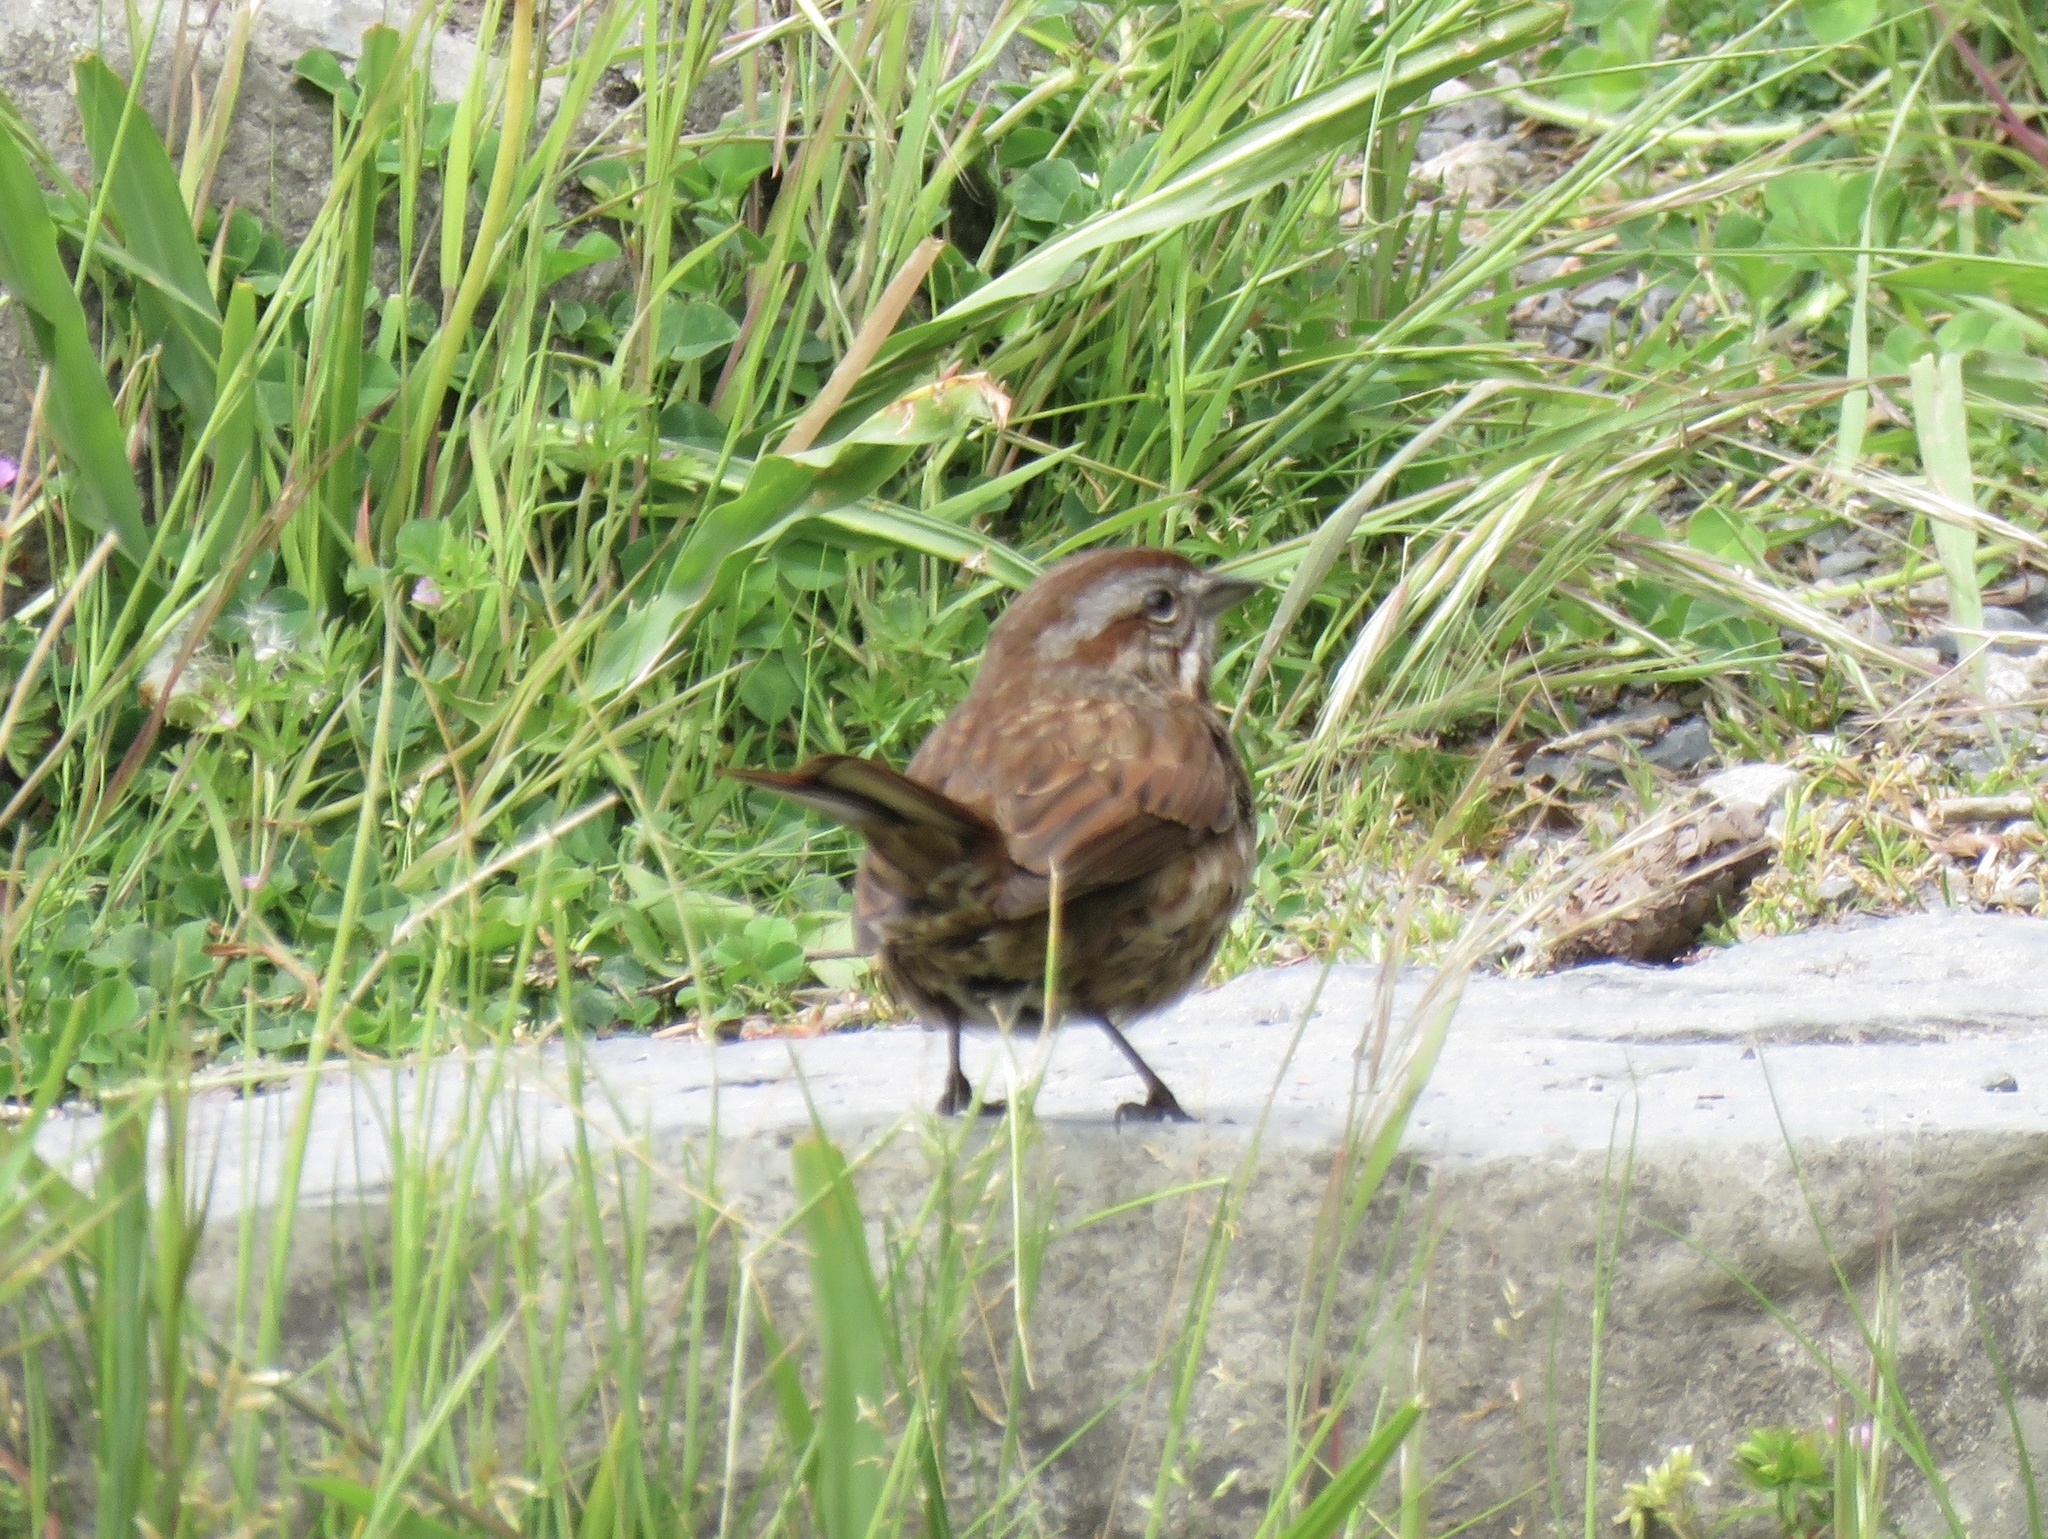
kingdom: Animalia
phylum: Chordata
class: Aves
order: Passeriformes
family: Passerellidae
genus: Melospiza
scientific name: Melospiza melodia
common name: Song sparrow
